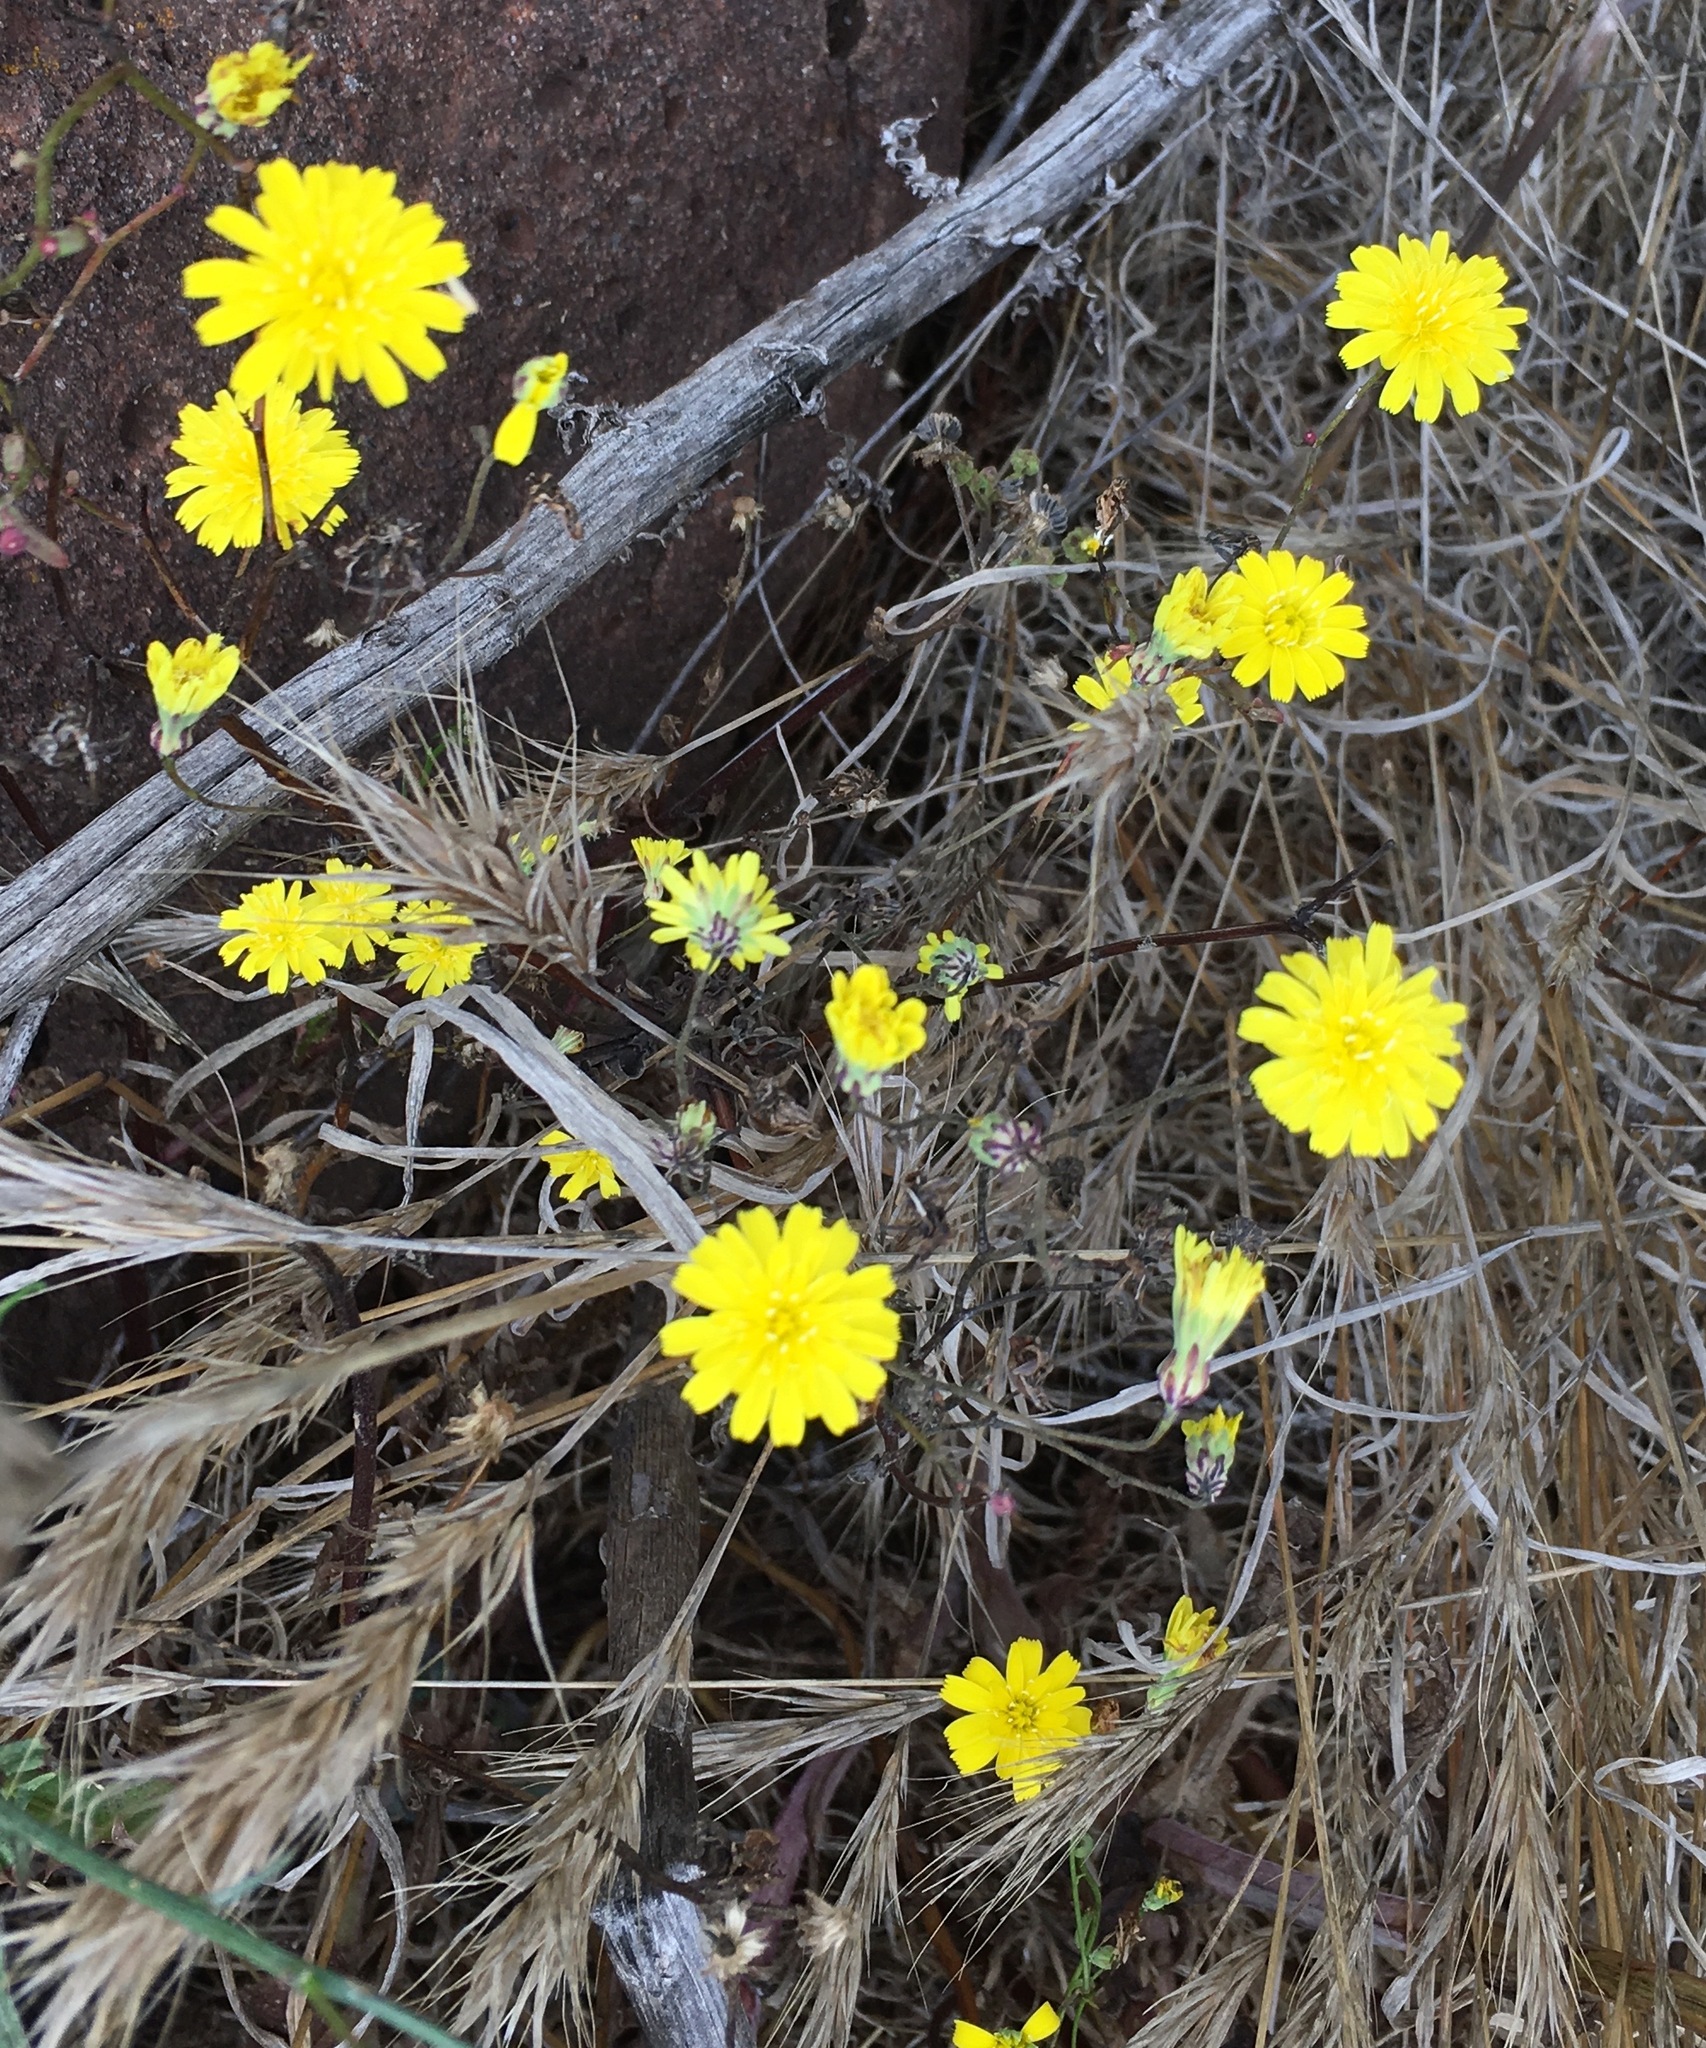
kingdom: Plantae
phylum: Tracheophyta
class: Magnoliopsida
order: Asterales
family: Asteraceae
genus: Malacothrix
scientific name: Malacothrix foliosa
